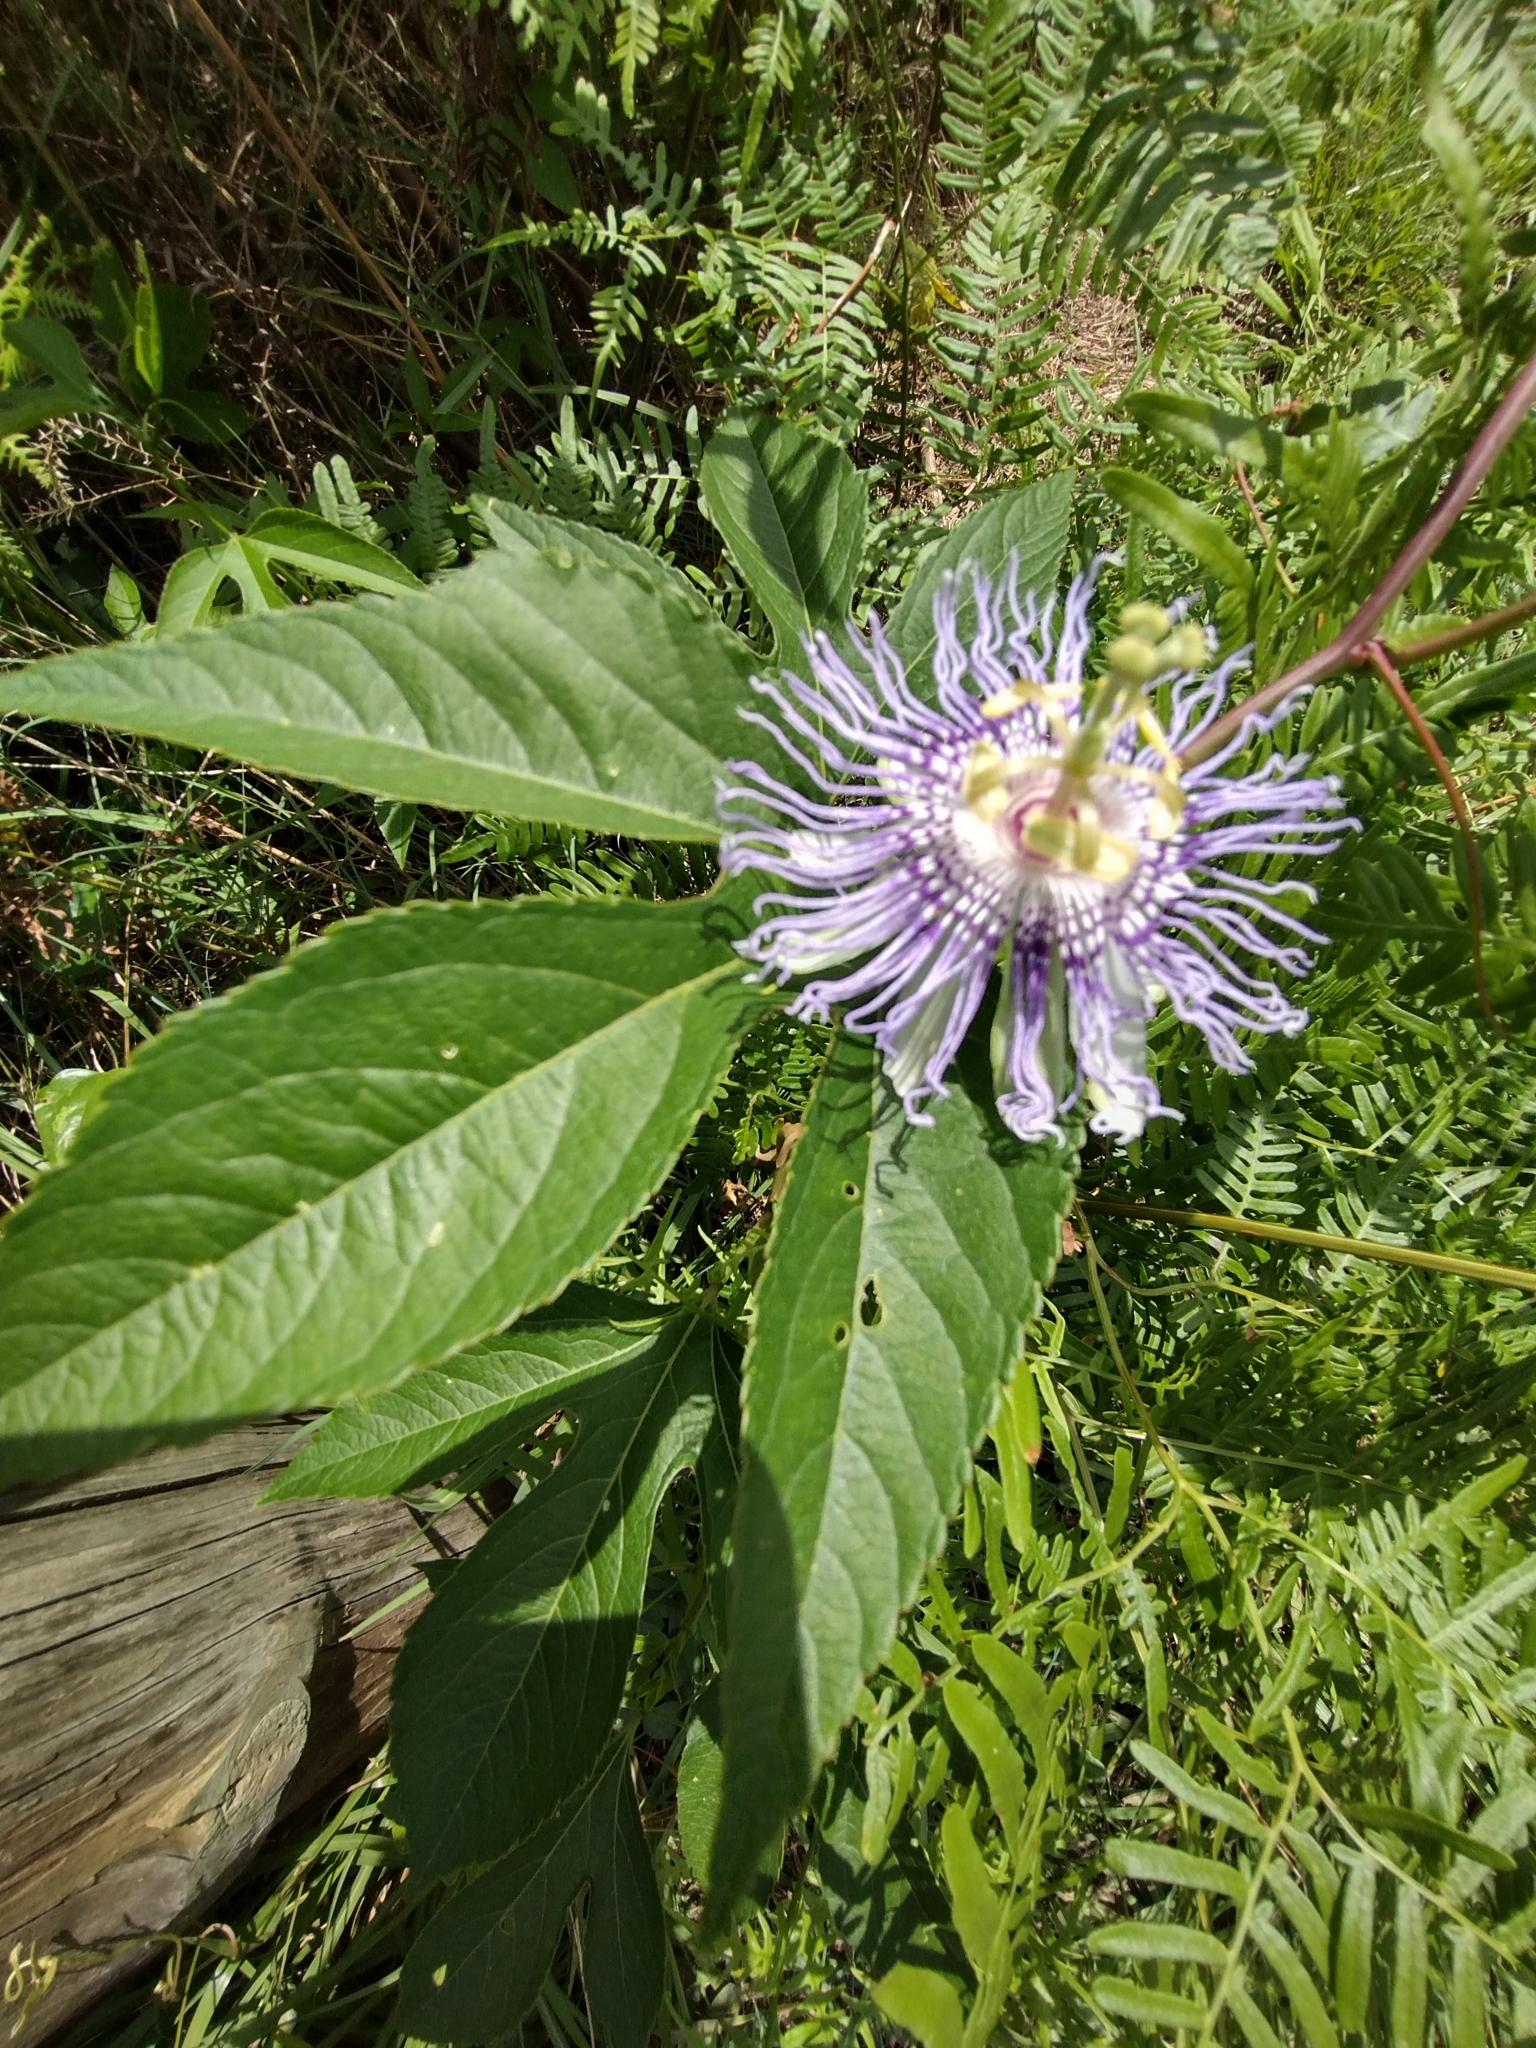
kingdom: Plantae
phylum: Tracheophyta
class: Magnoliopsida
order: Malpighiales
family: Passifloraceae
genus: Passiflora
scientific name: Passiflora incarnata
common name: Apricot-vine
